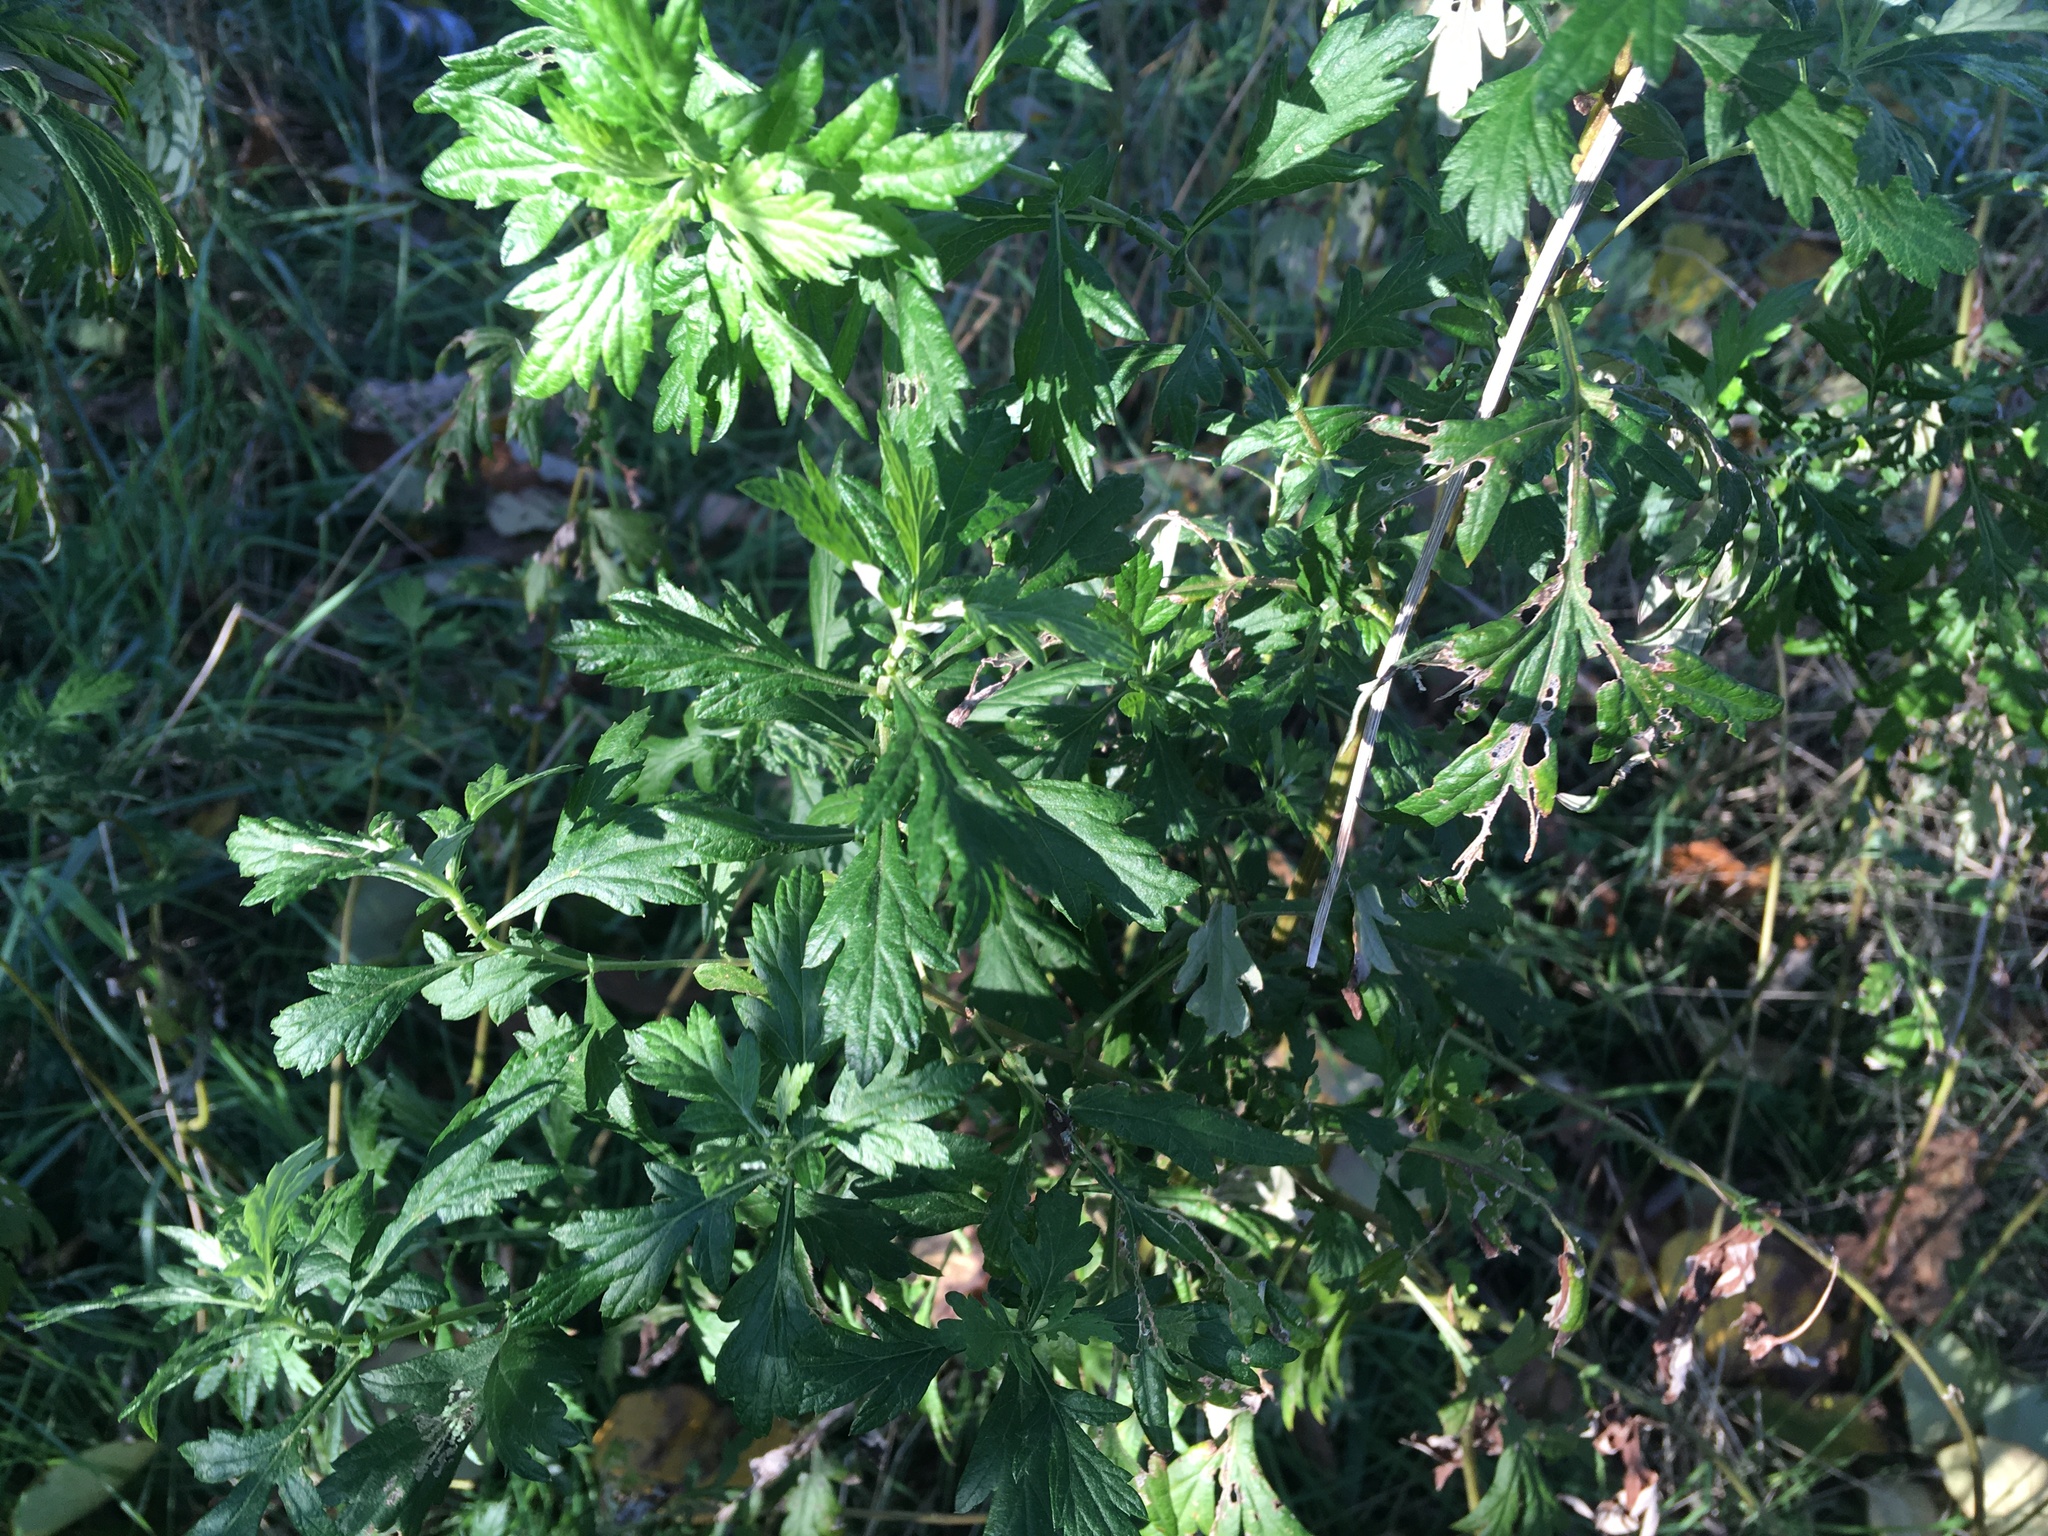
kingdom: Plantae
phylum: Tracheophyta
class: Magnoliopsida
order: Asterales
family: Asteraceae
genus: Artemisia
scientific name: Artemisia vulgaris
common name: Mugwort
